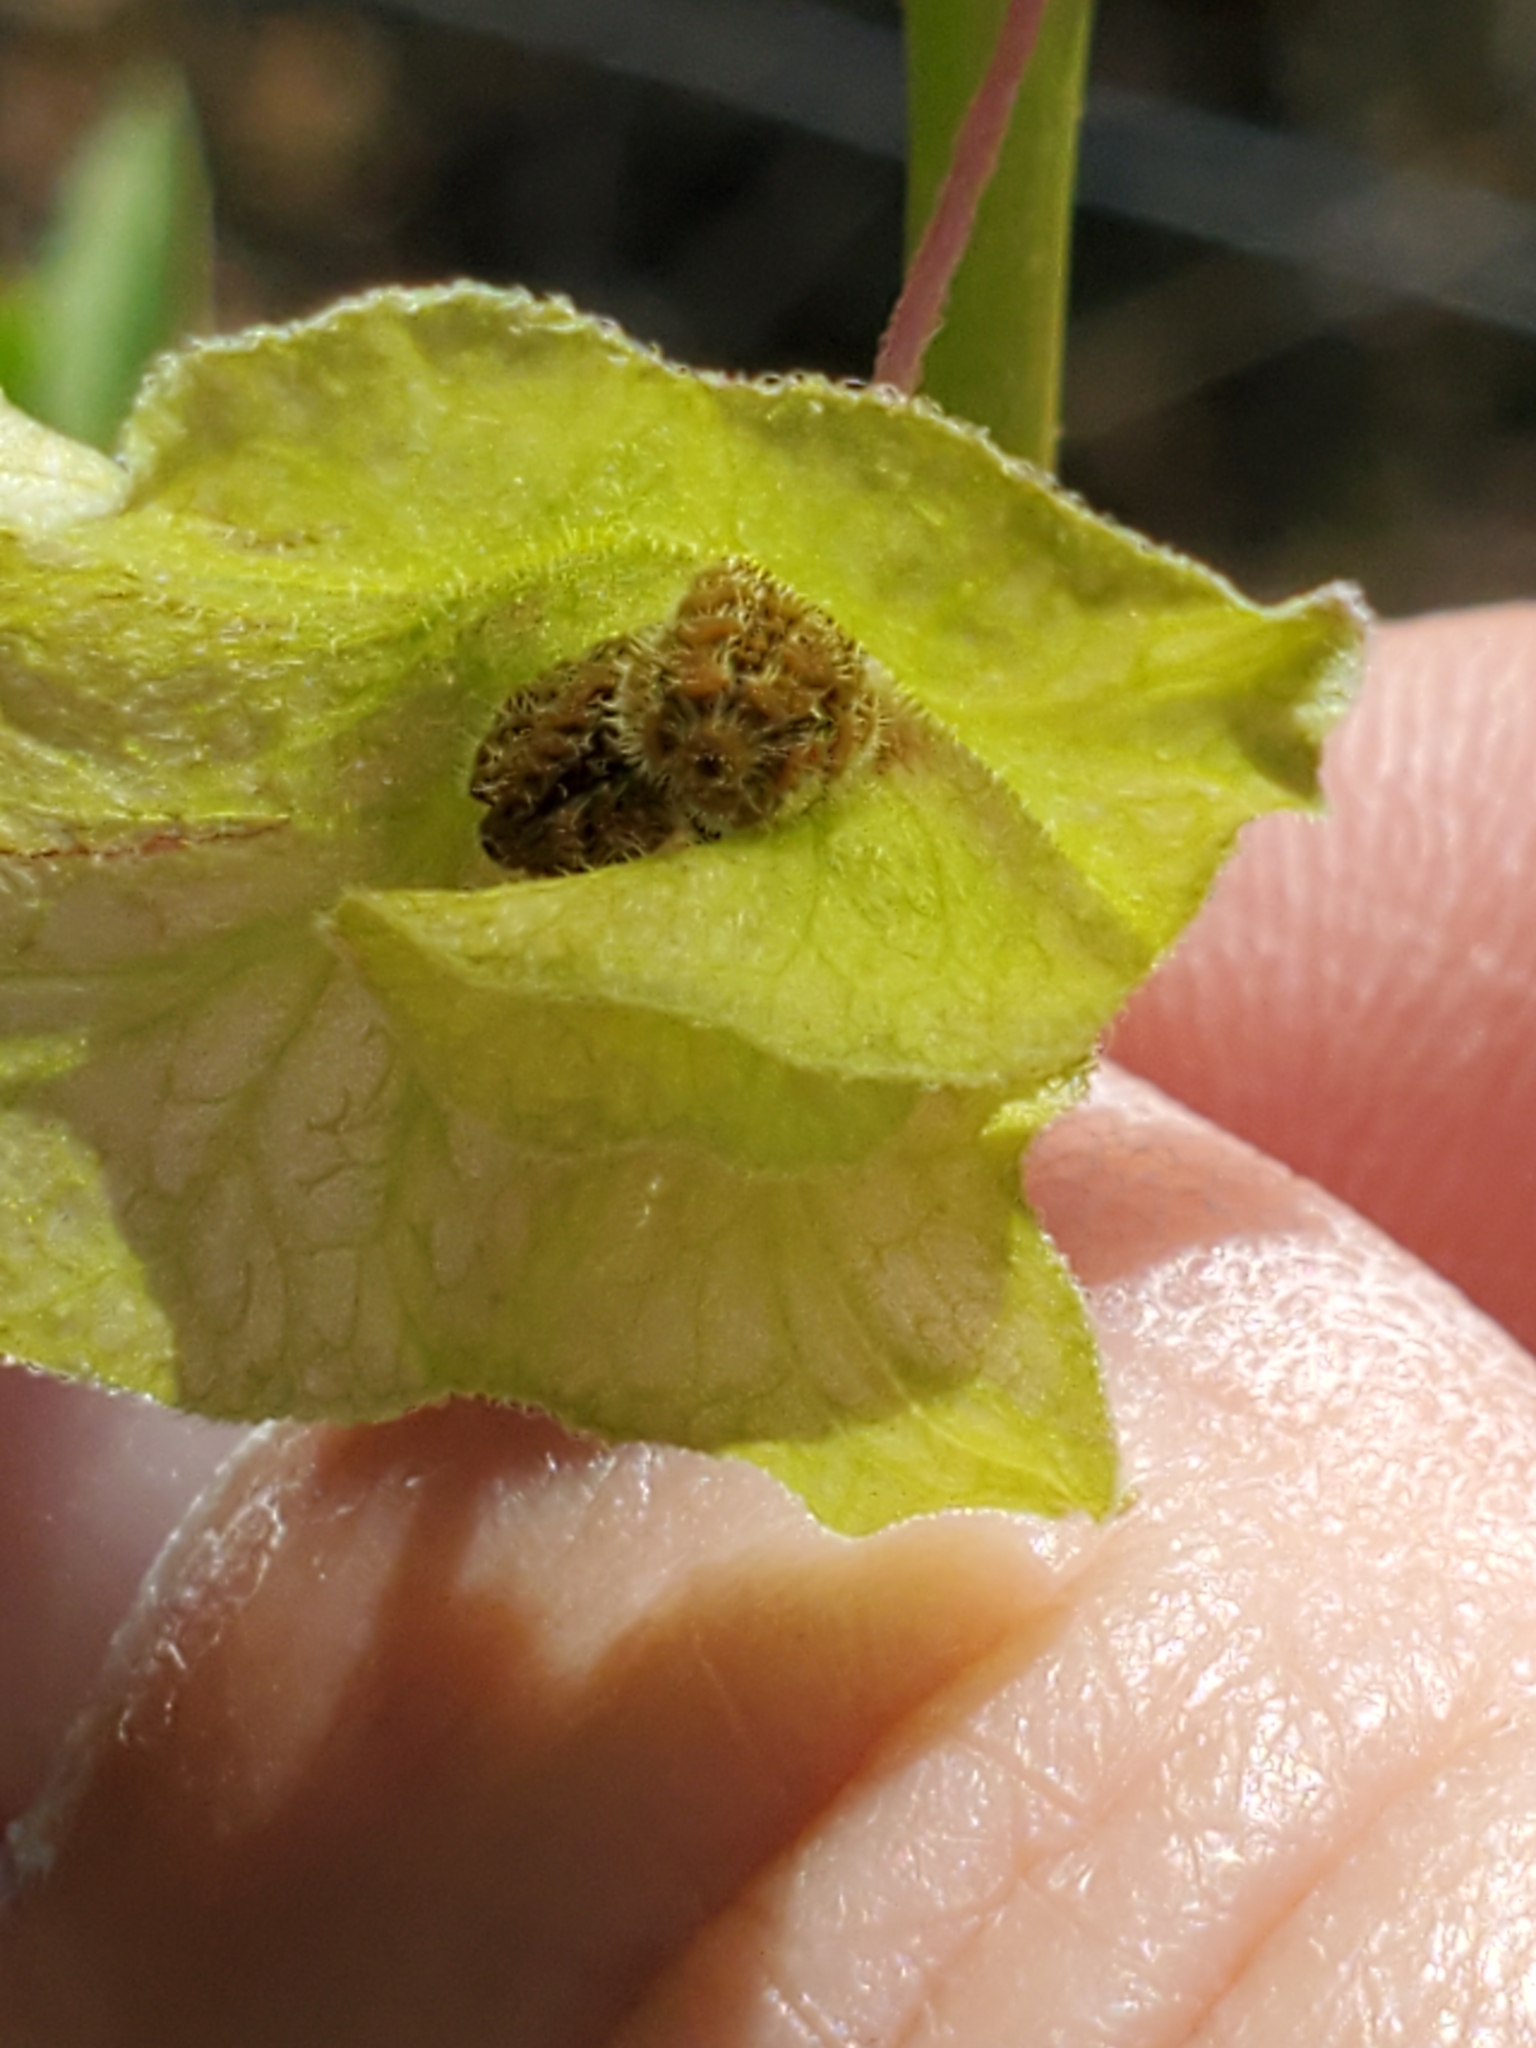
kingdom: Plantae
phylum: Tracheophyta
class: Magnoliopsida
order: Caryophyllales
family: Nyctaginaceae
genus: Mirabilis
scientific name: Mirabilis albida
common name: Hairy four-o'clock
